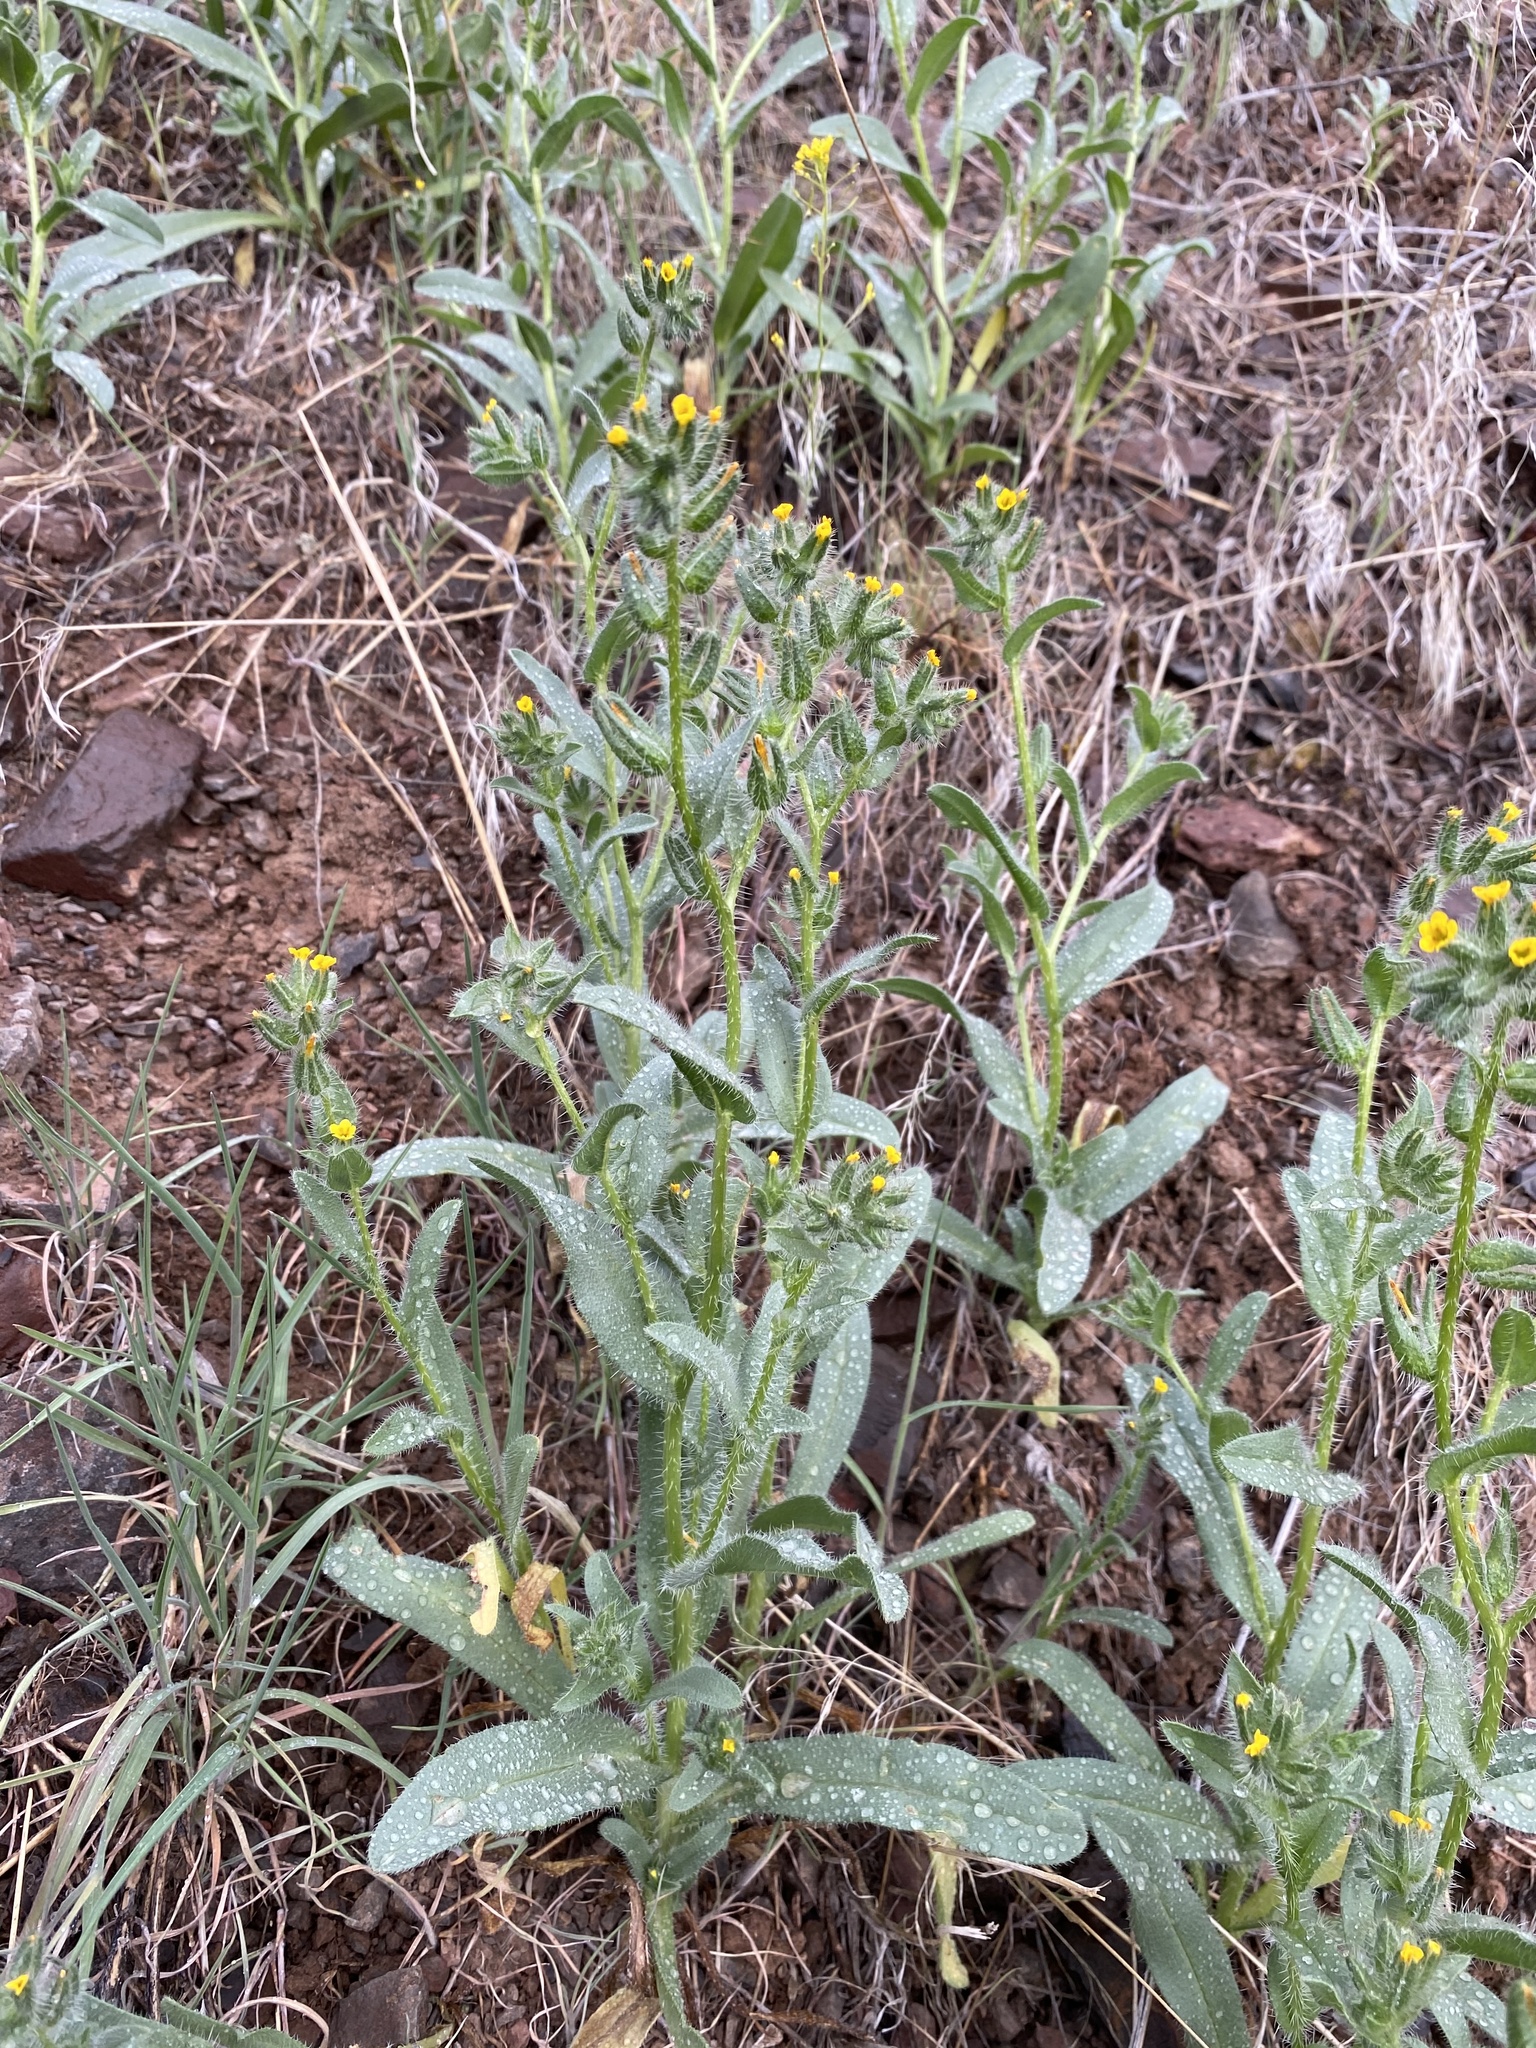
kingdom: Plantae
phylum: Tracheophyta
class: Magnoliopsida
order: Boraginales
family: Boraginaceae
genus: Amsinckia
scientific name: Amsinckia tessellata
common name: Tessellate fiddleneck
